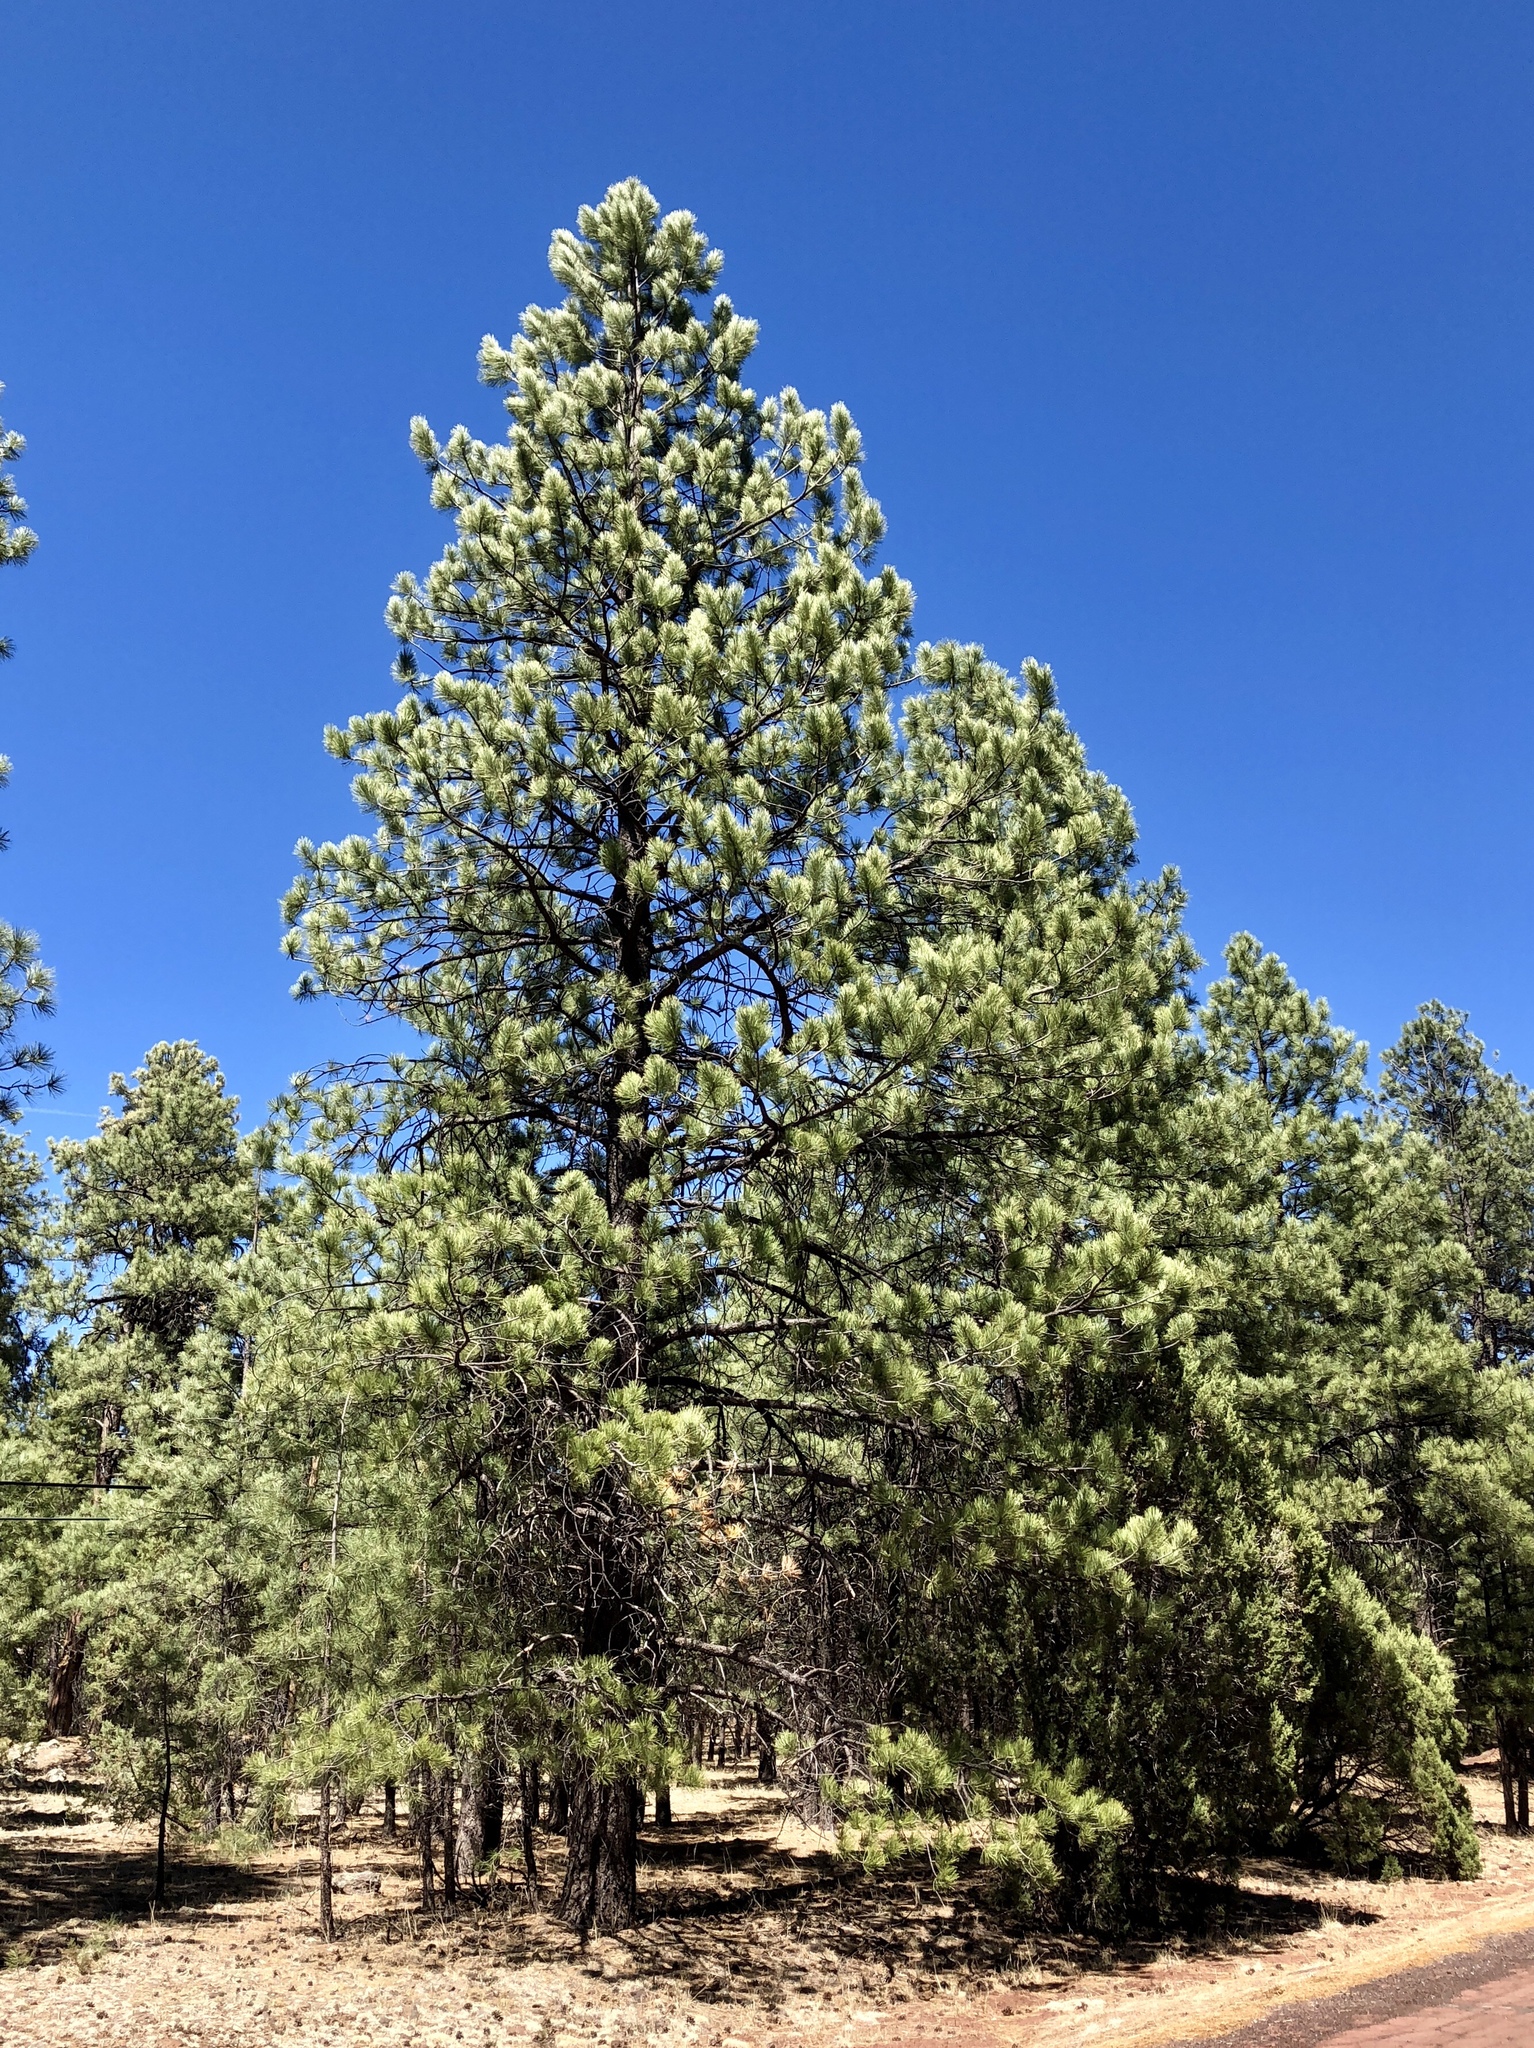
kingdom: Plantae
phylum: Tracheophyta
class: Pinopsida
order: Pinales
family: Pinaceae
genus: Pinus
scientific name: Pinus ponderosa
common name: Western yellow-pine
